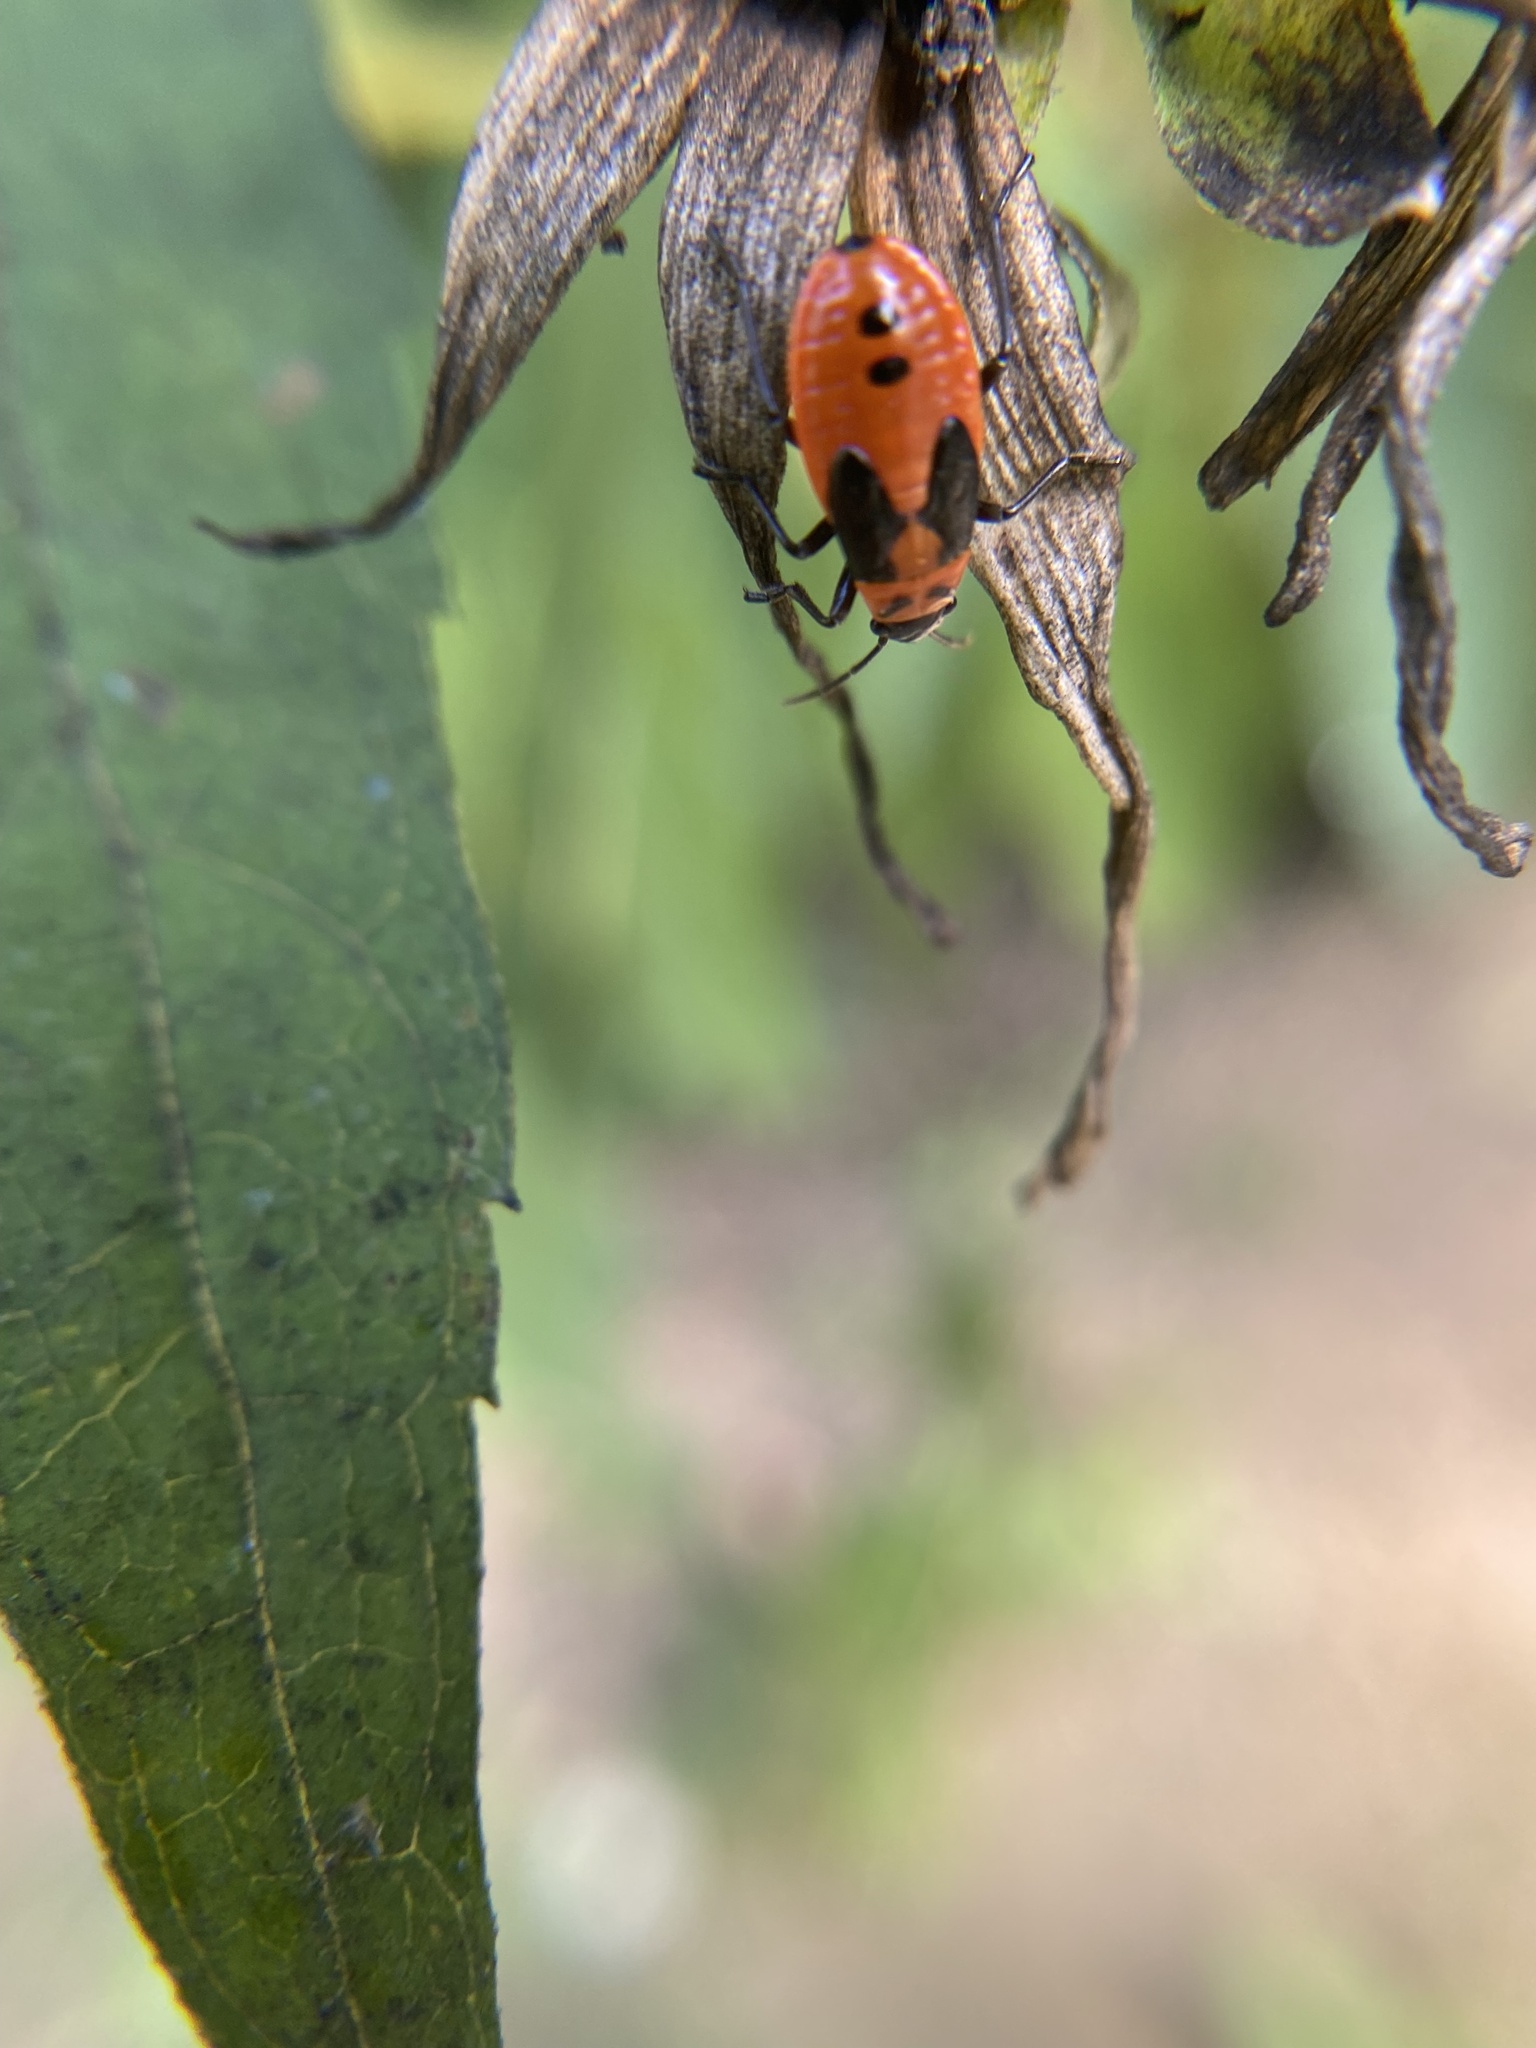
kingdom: Animalia
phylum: Arthropoda
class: Insecta
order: Hemiptera
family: Lygaeidae
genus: Lygaeus
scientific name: Lygaeus turcicus
